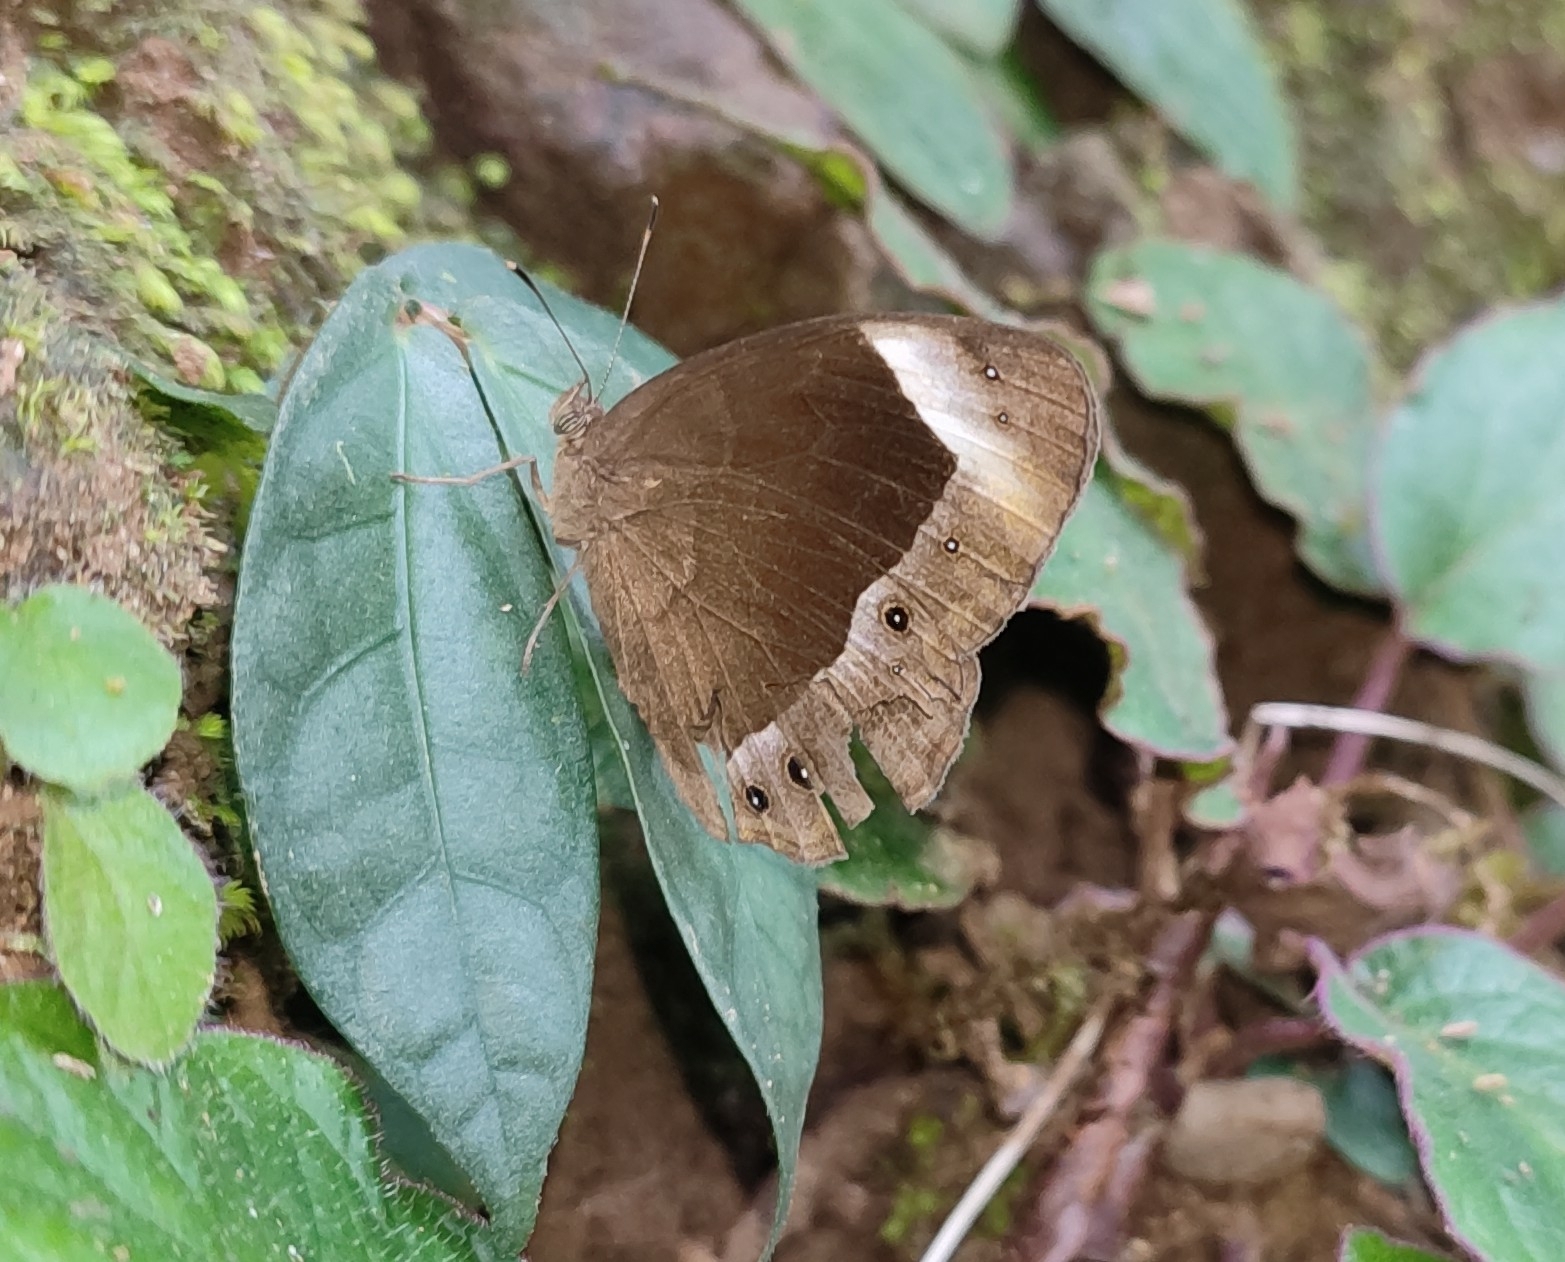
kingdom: Animalia
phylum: Arthropoda
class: Insecta
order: Lepidoptera
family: Nymphalidae
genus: Mycalesis
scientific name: Mycalesis anaxias
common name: White-bar bushbrown
